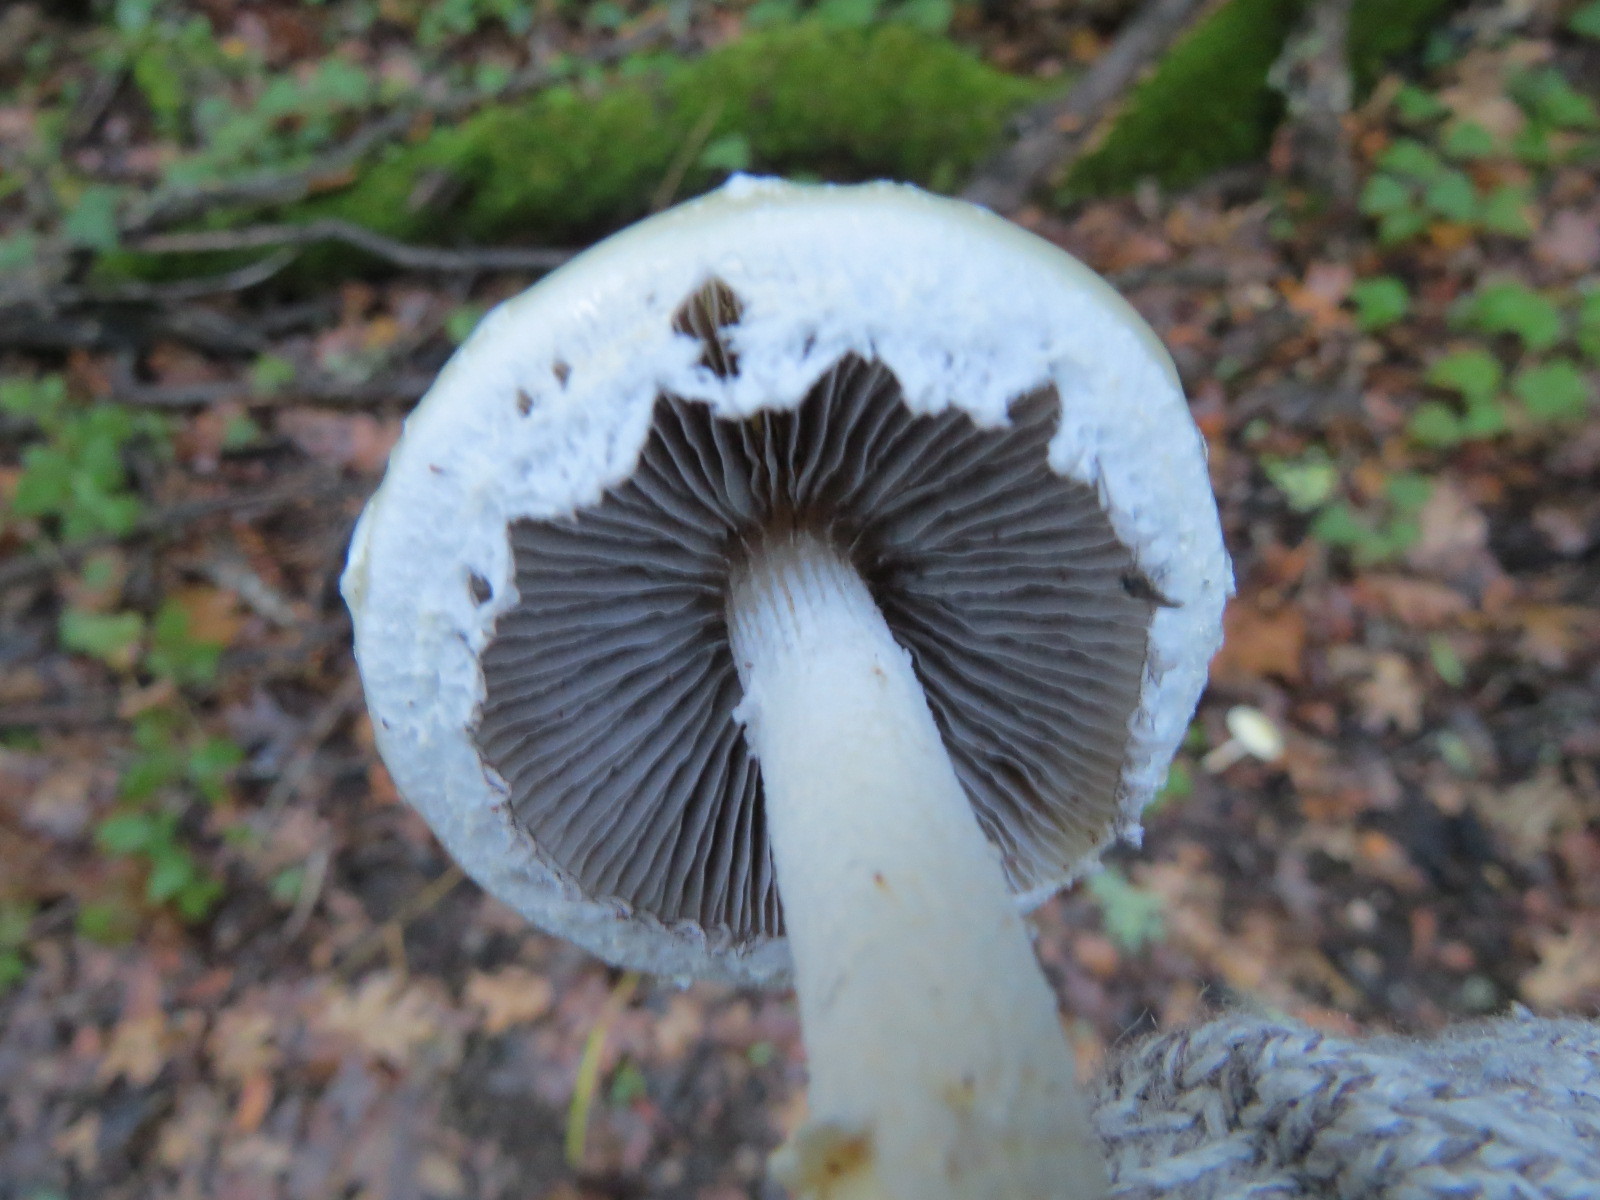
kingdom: Fungi
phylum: Basidiomycota
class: Agaricomycetes
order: Agaricales
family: Strophariaceae
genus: Stropharia
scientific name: Stropharia ambigua
